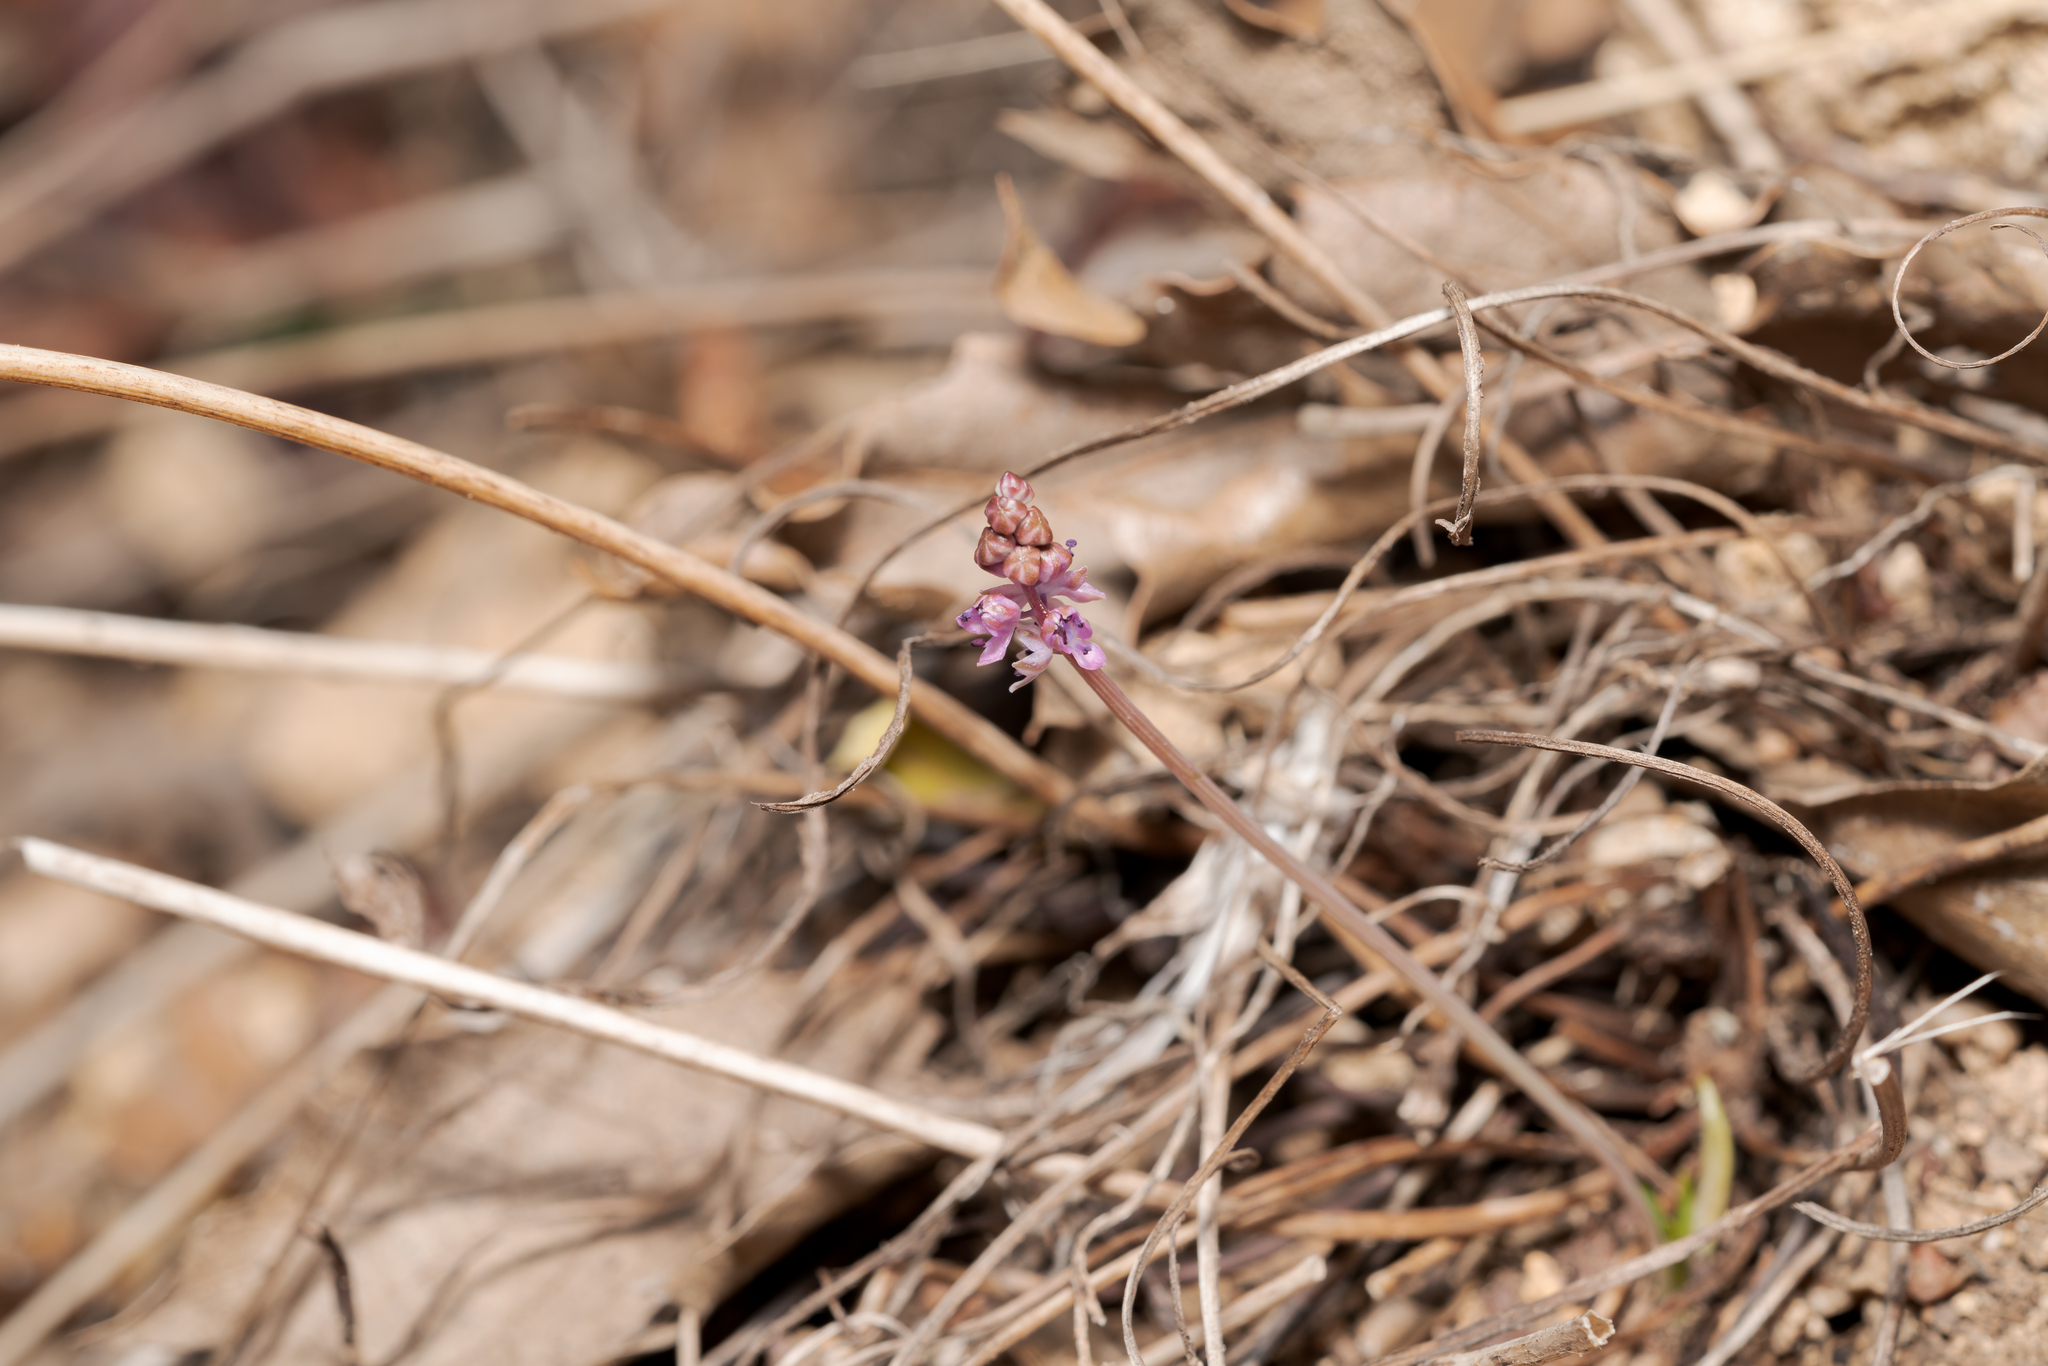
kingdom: Plantae
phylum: Tracheophyta
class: Liliopsida
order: Asparagales
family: Asparagaceae
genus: Prospero
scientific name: Prospero autumnale
